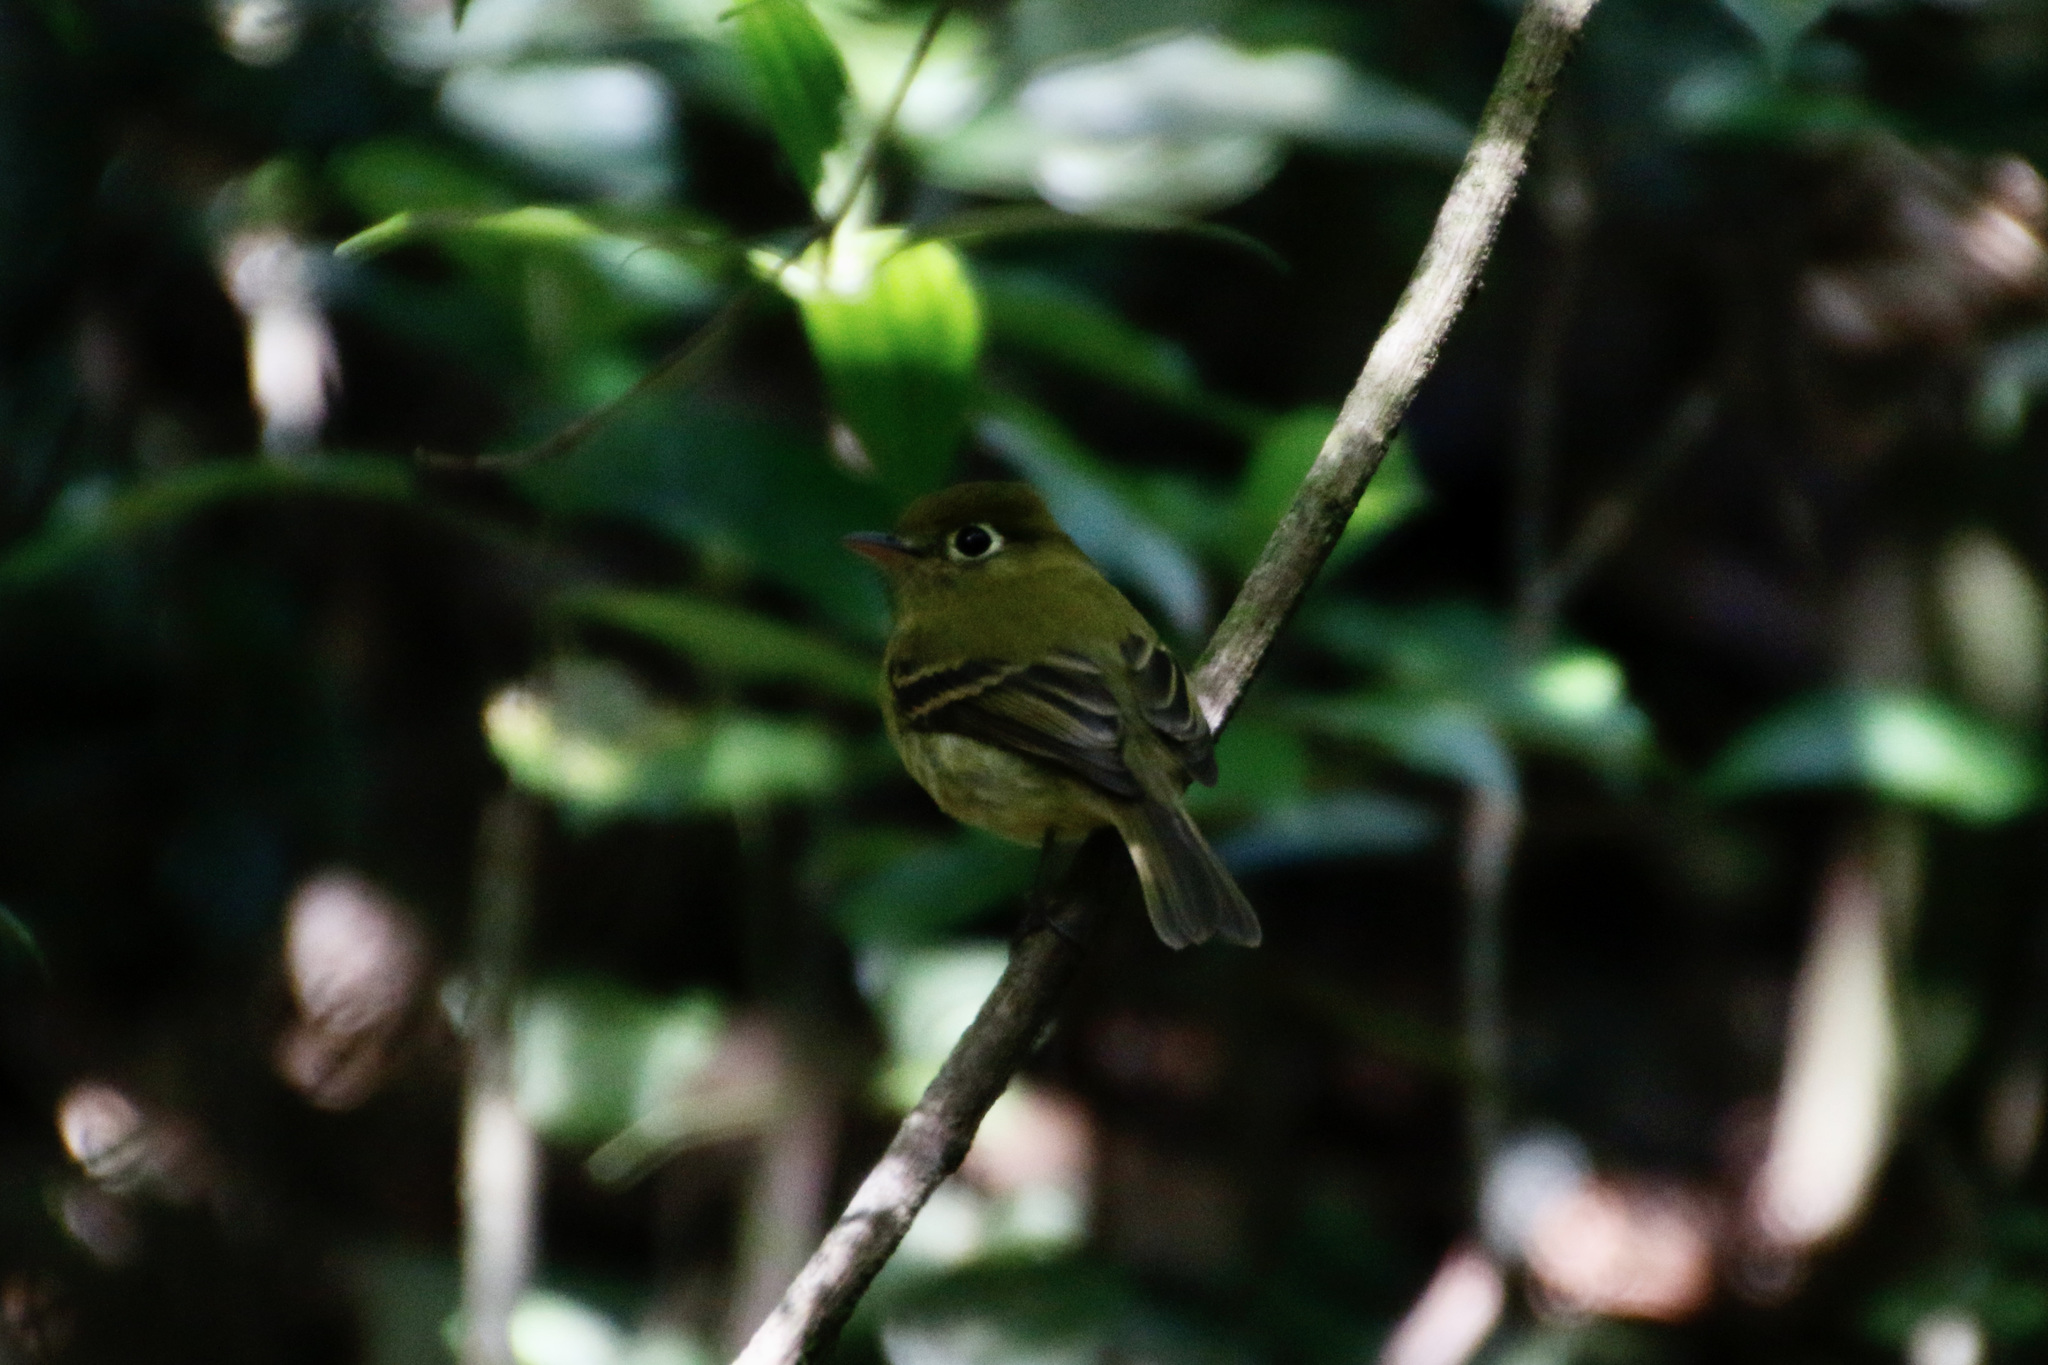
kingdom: Animalia
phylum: Chordata
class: Aves
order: Passeriformes
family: Tyrannidae
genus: Empidonax
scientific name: Empidonax flavescens
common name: Yellowish flycatcher
